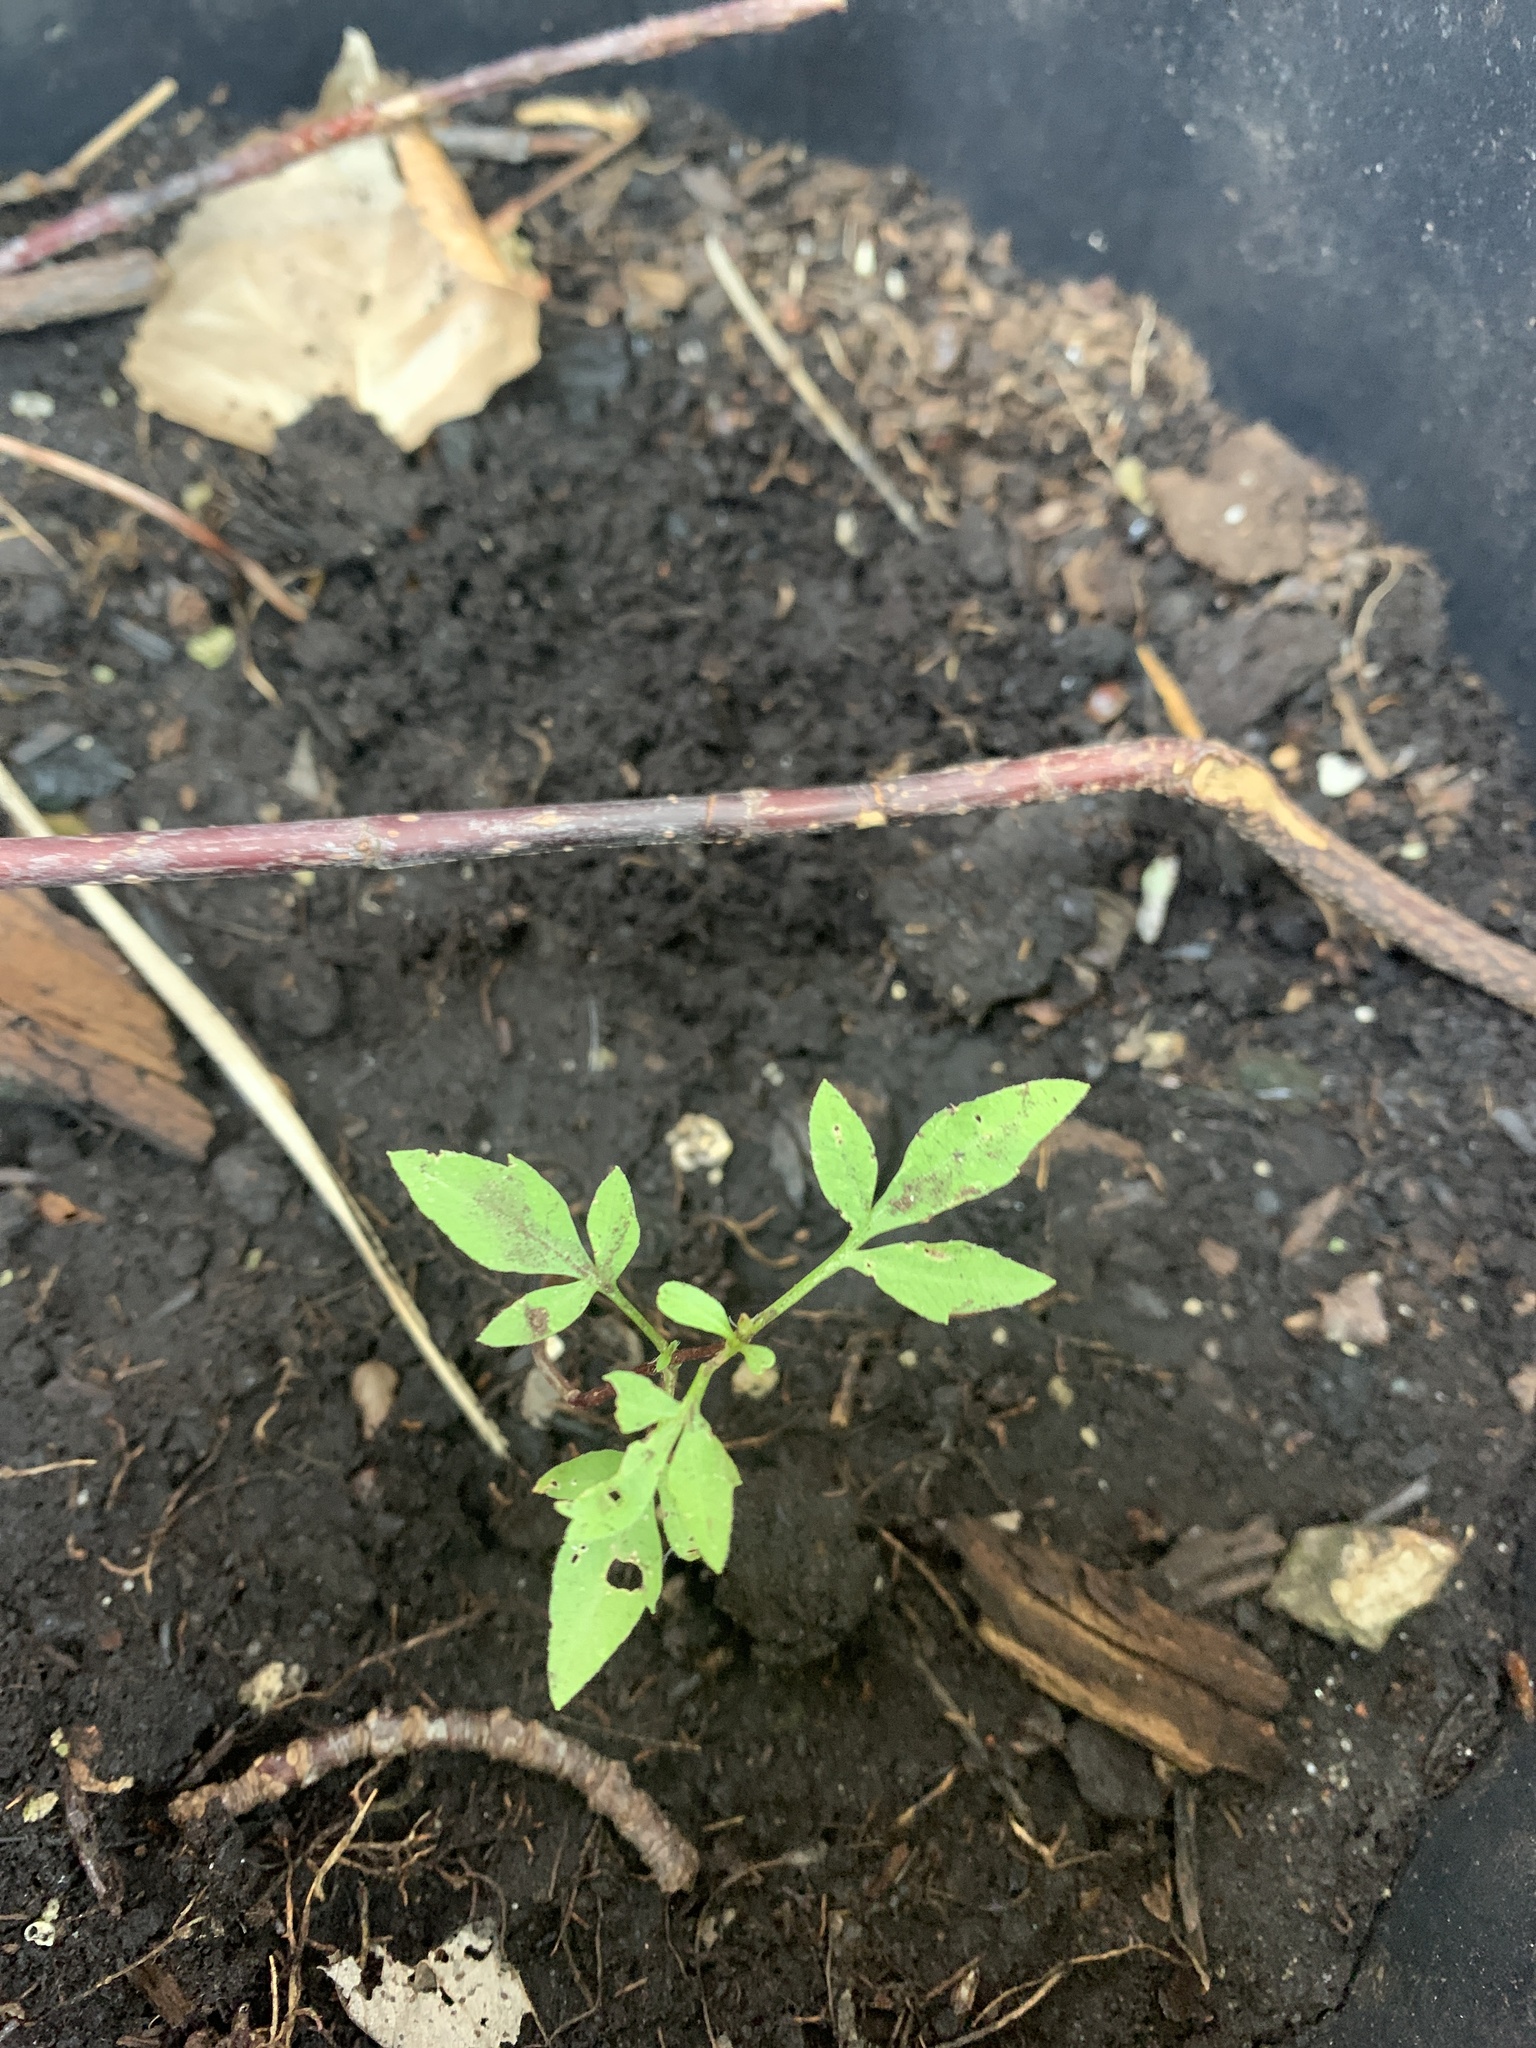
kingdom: Plantae
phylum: Tracheophyta
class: Magnoliopsida
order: Asterales
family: Asteraceae
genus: Bidens
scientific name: Bidens
